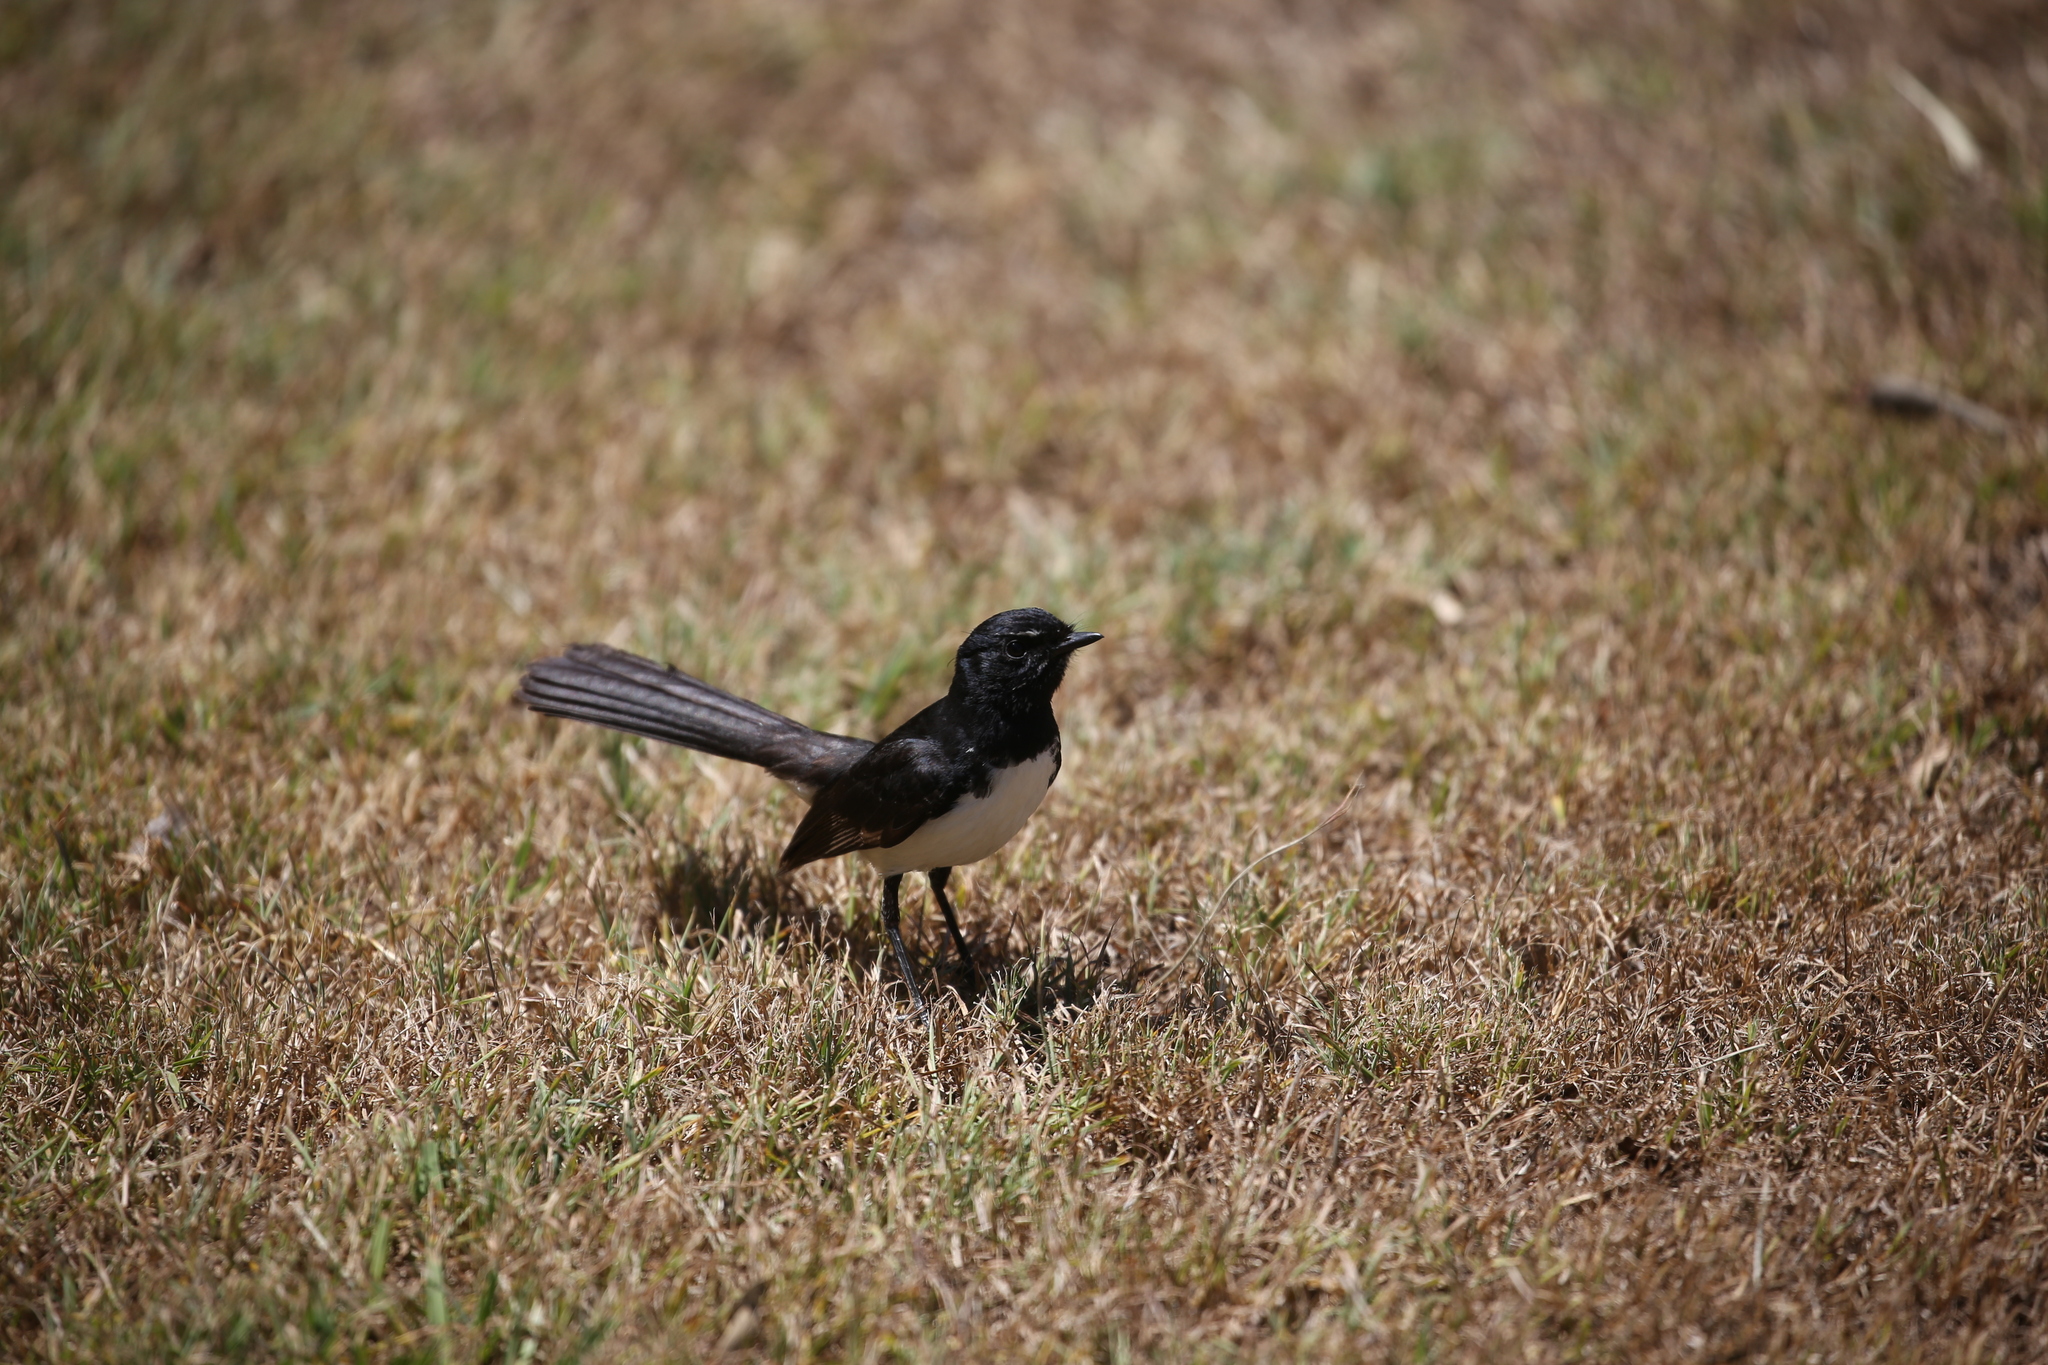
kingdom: Animalia
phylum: Chordata
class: Aves
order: Passeriformes
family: Rhipiduridae
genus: Rhipidura
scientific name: Rhipidura leucophrys
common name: Willie wagtail
